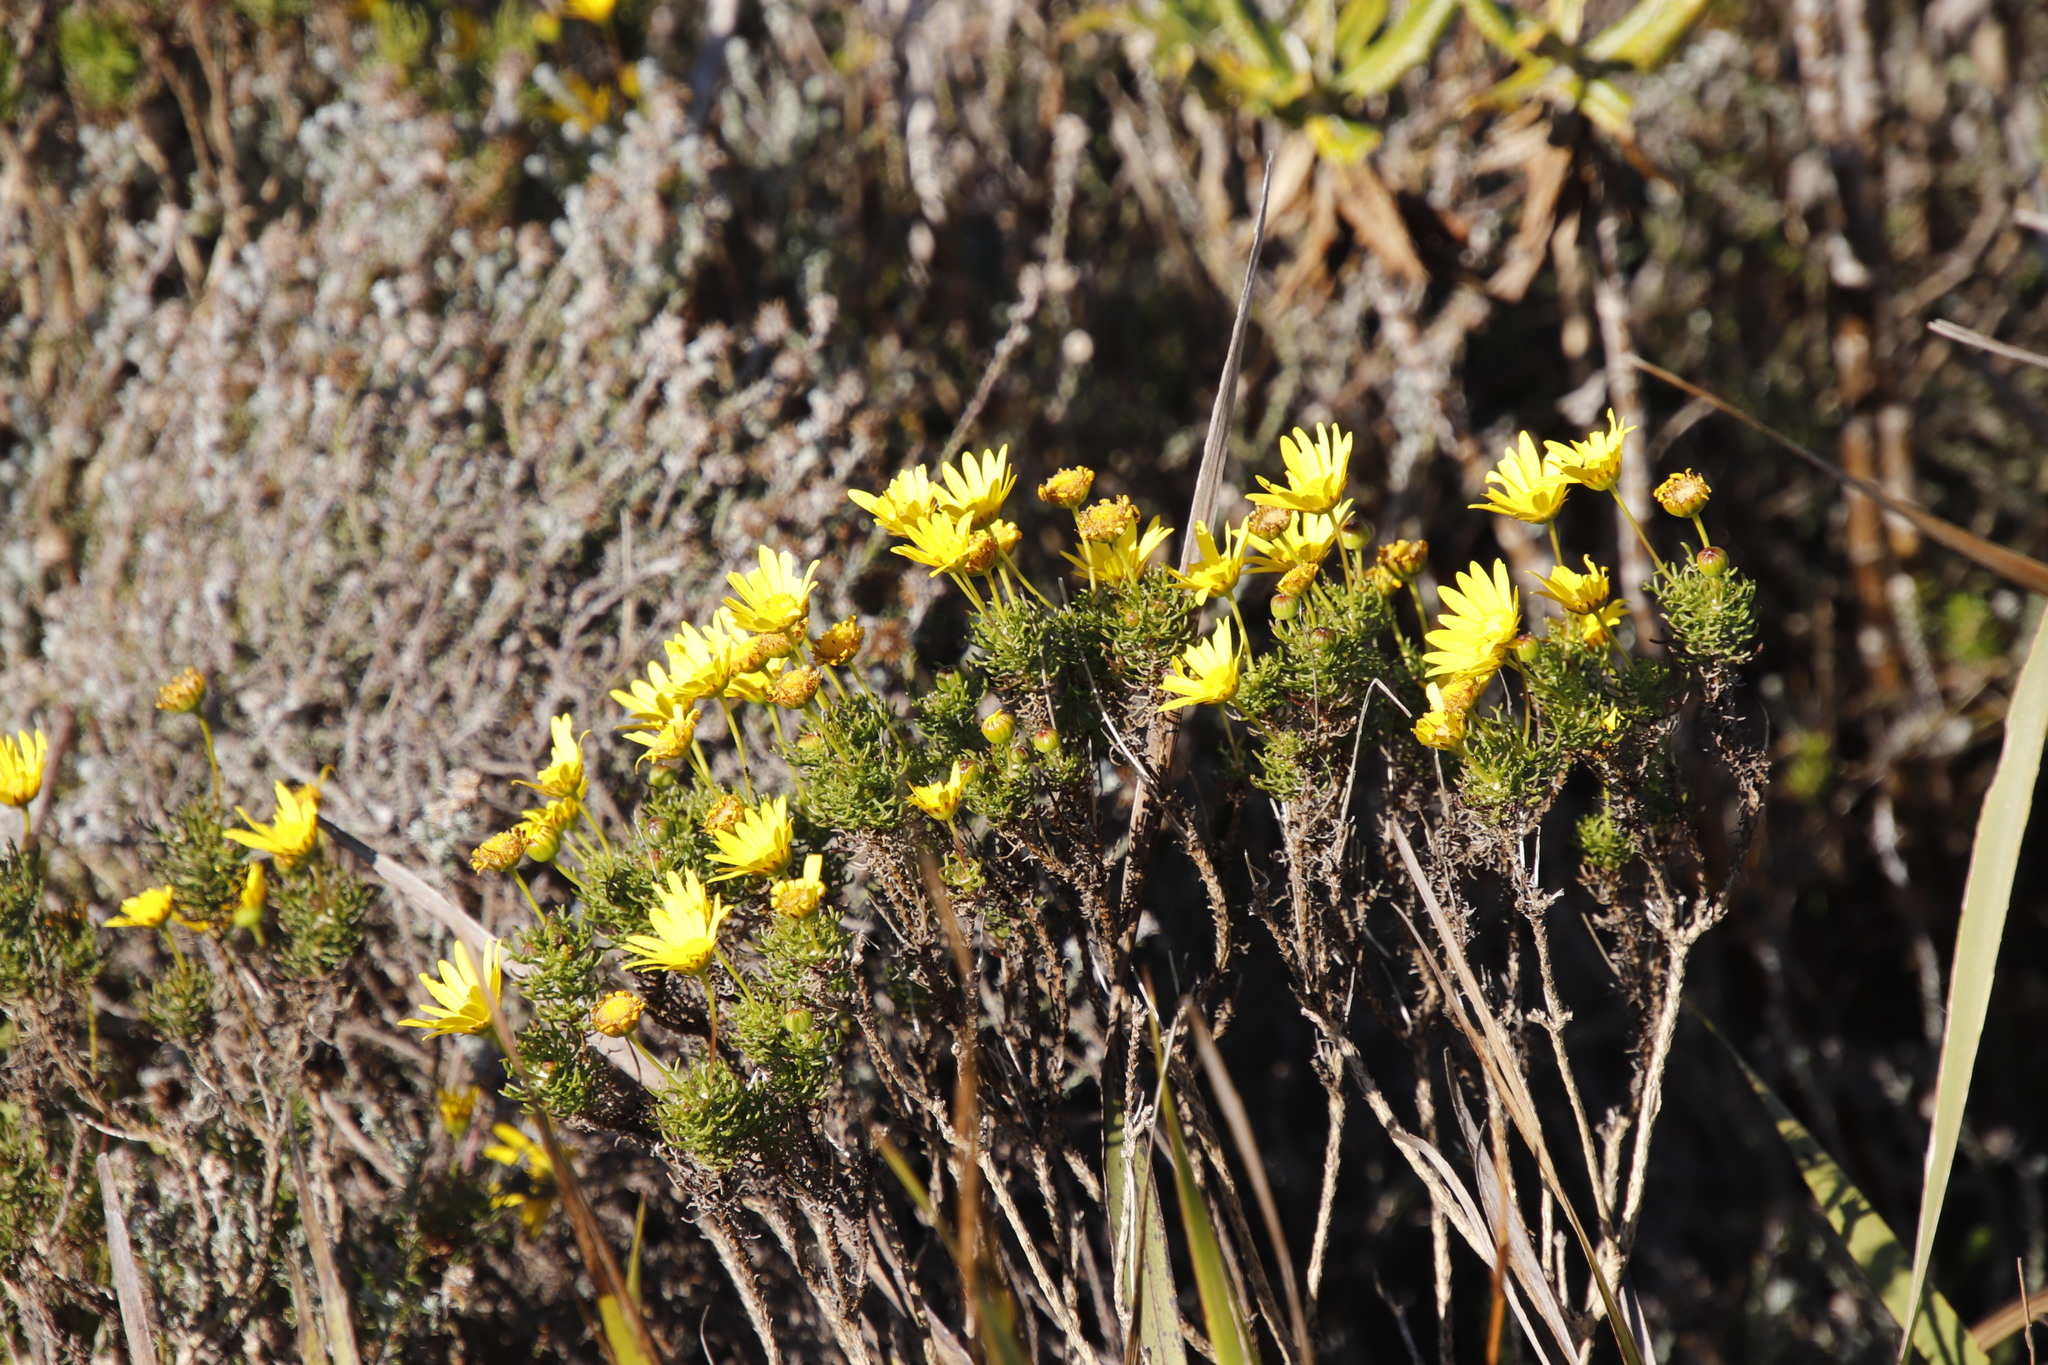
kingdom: Plantae
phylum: Tracheophyta
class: Magnoliopsida
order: Asterales
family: Asteraceae
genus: Euryops
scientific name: Euryops abrotanifolius
